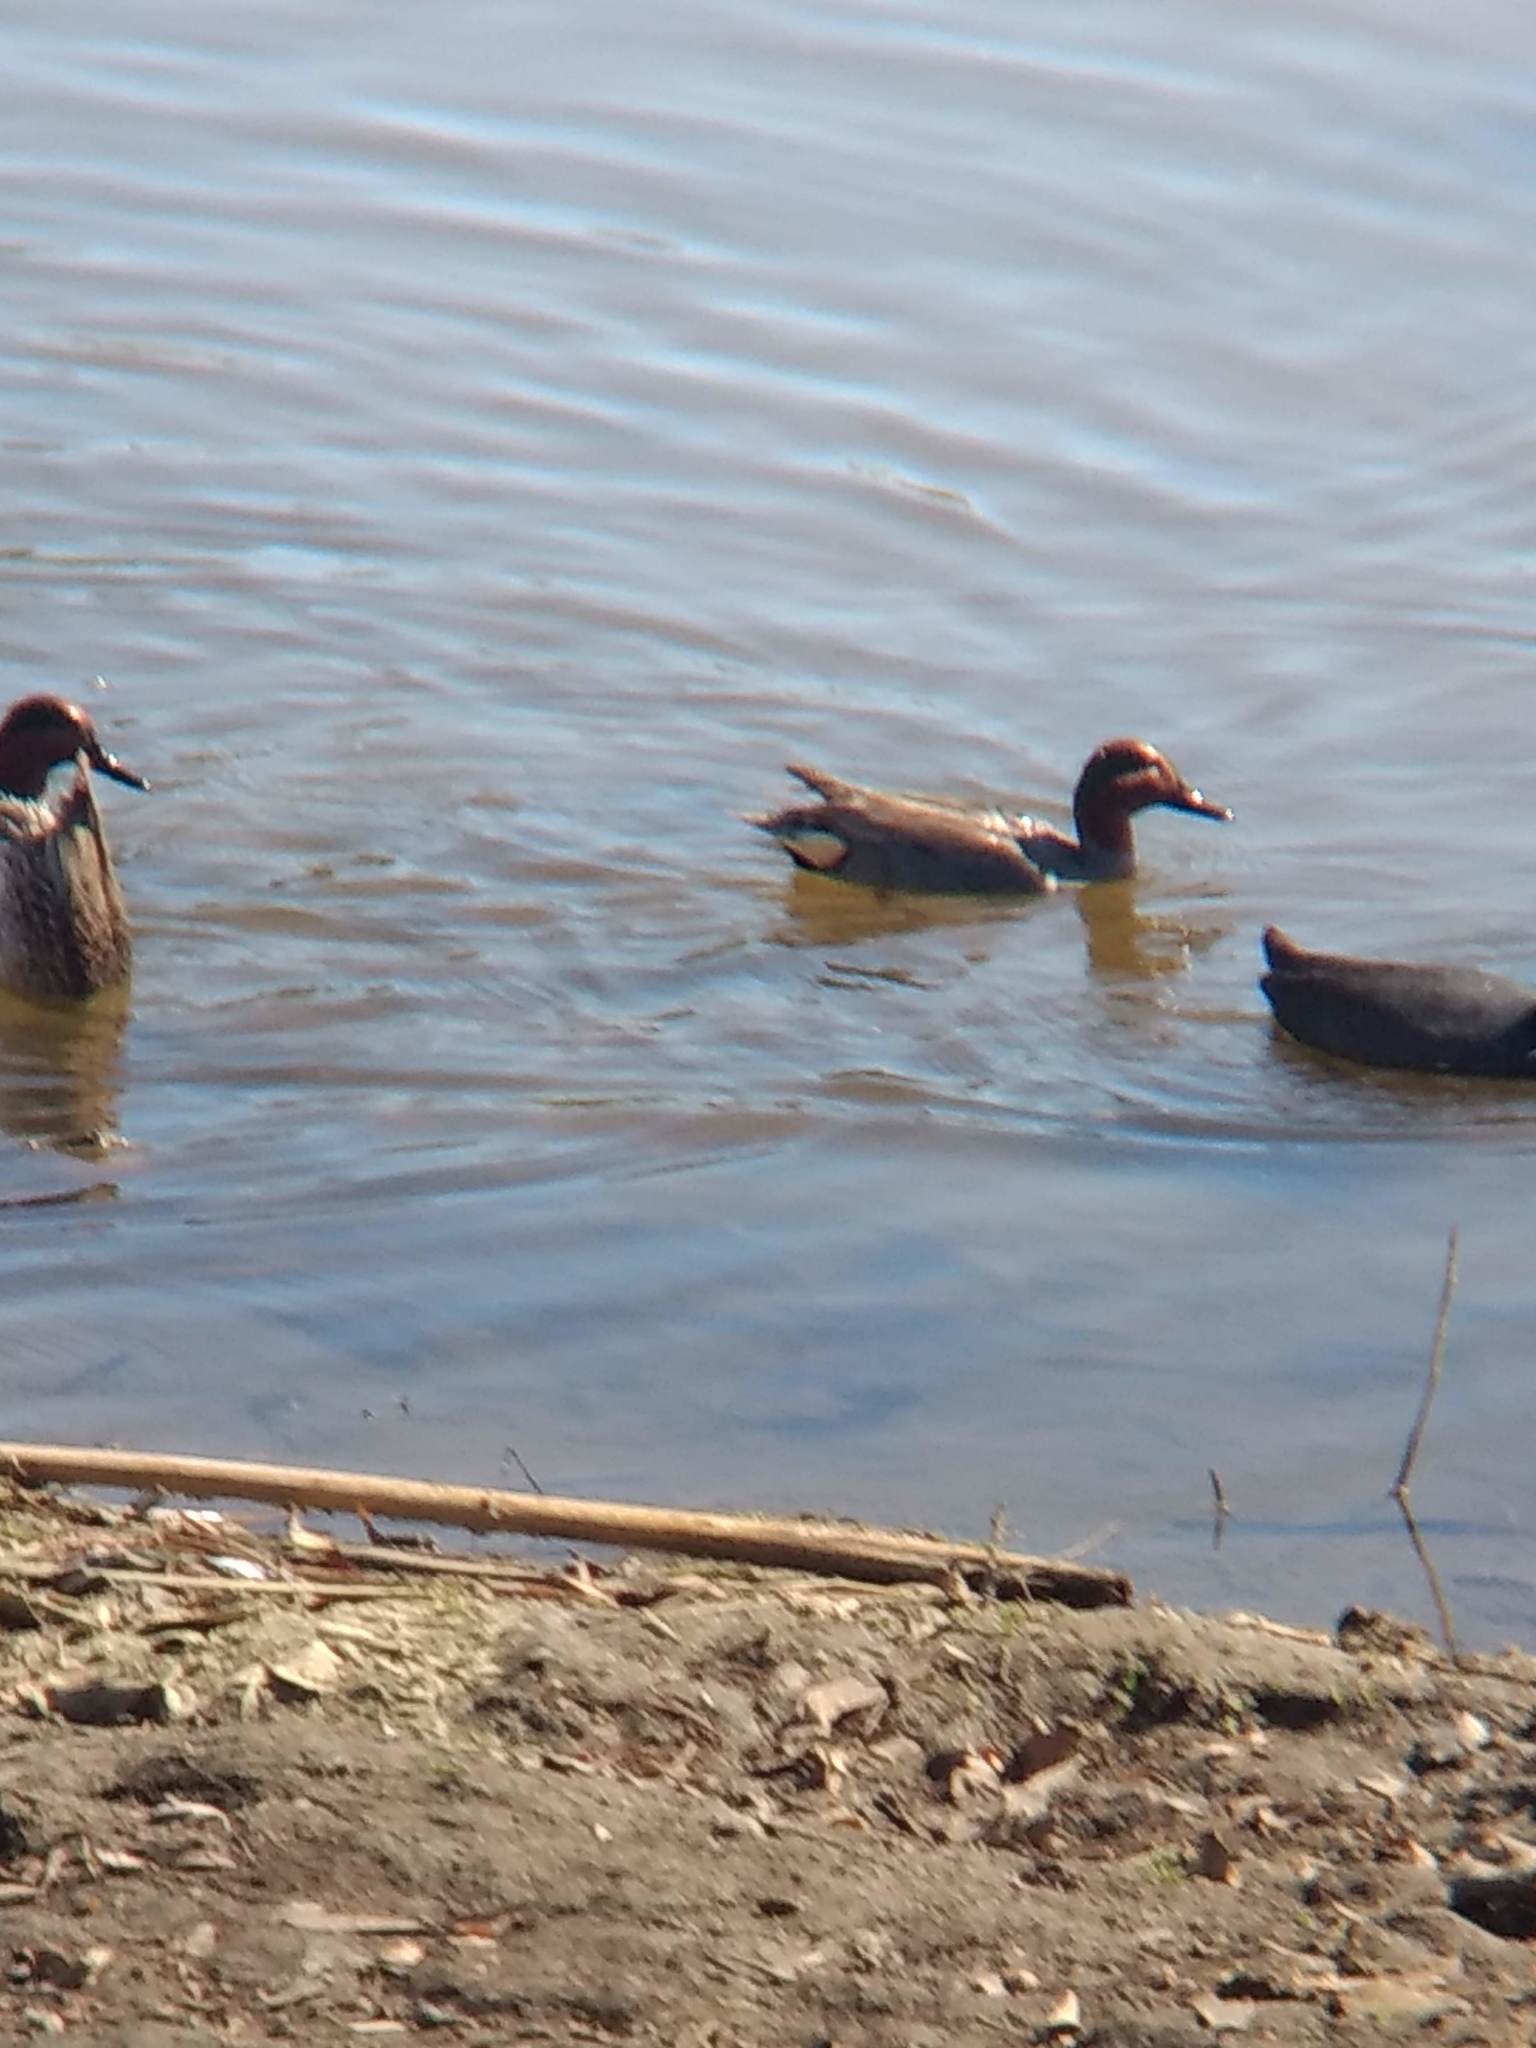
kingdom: Animalia
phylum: Chordata
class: Aves
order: Anseriformes
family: Anatidae
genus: Anas
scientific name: Anas crecca
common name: Eurasian teal
